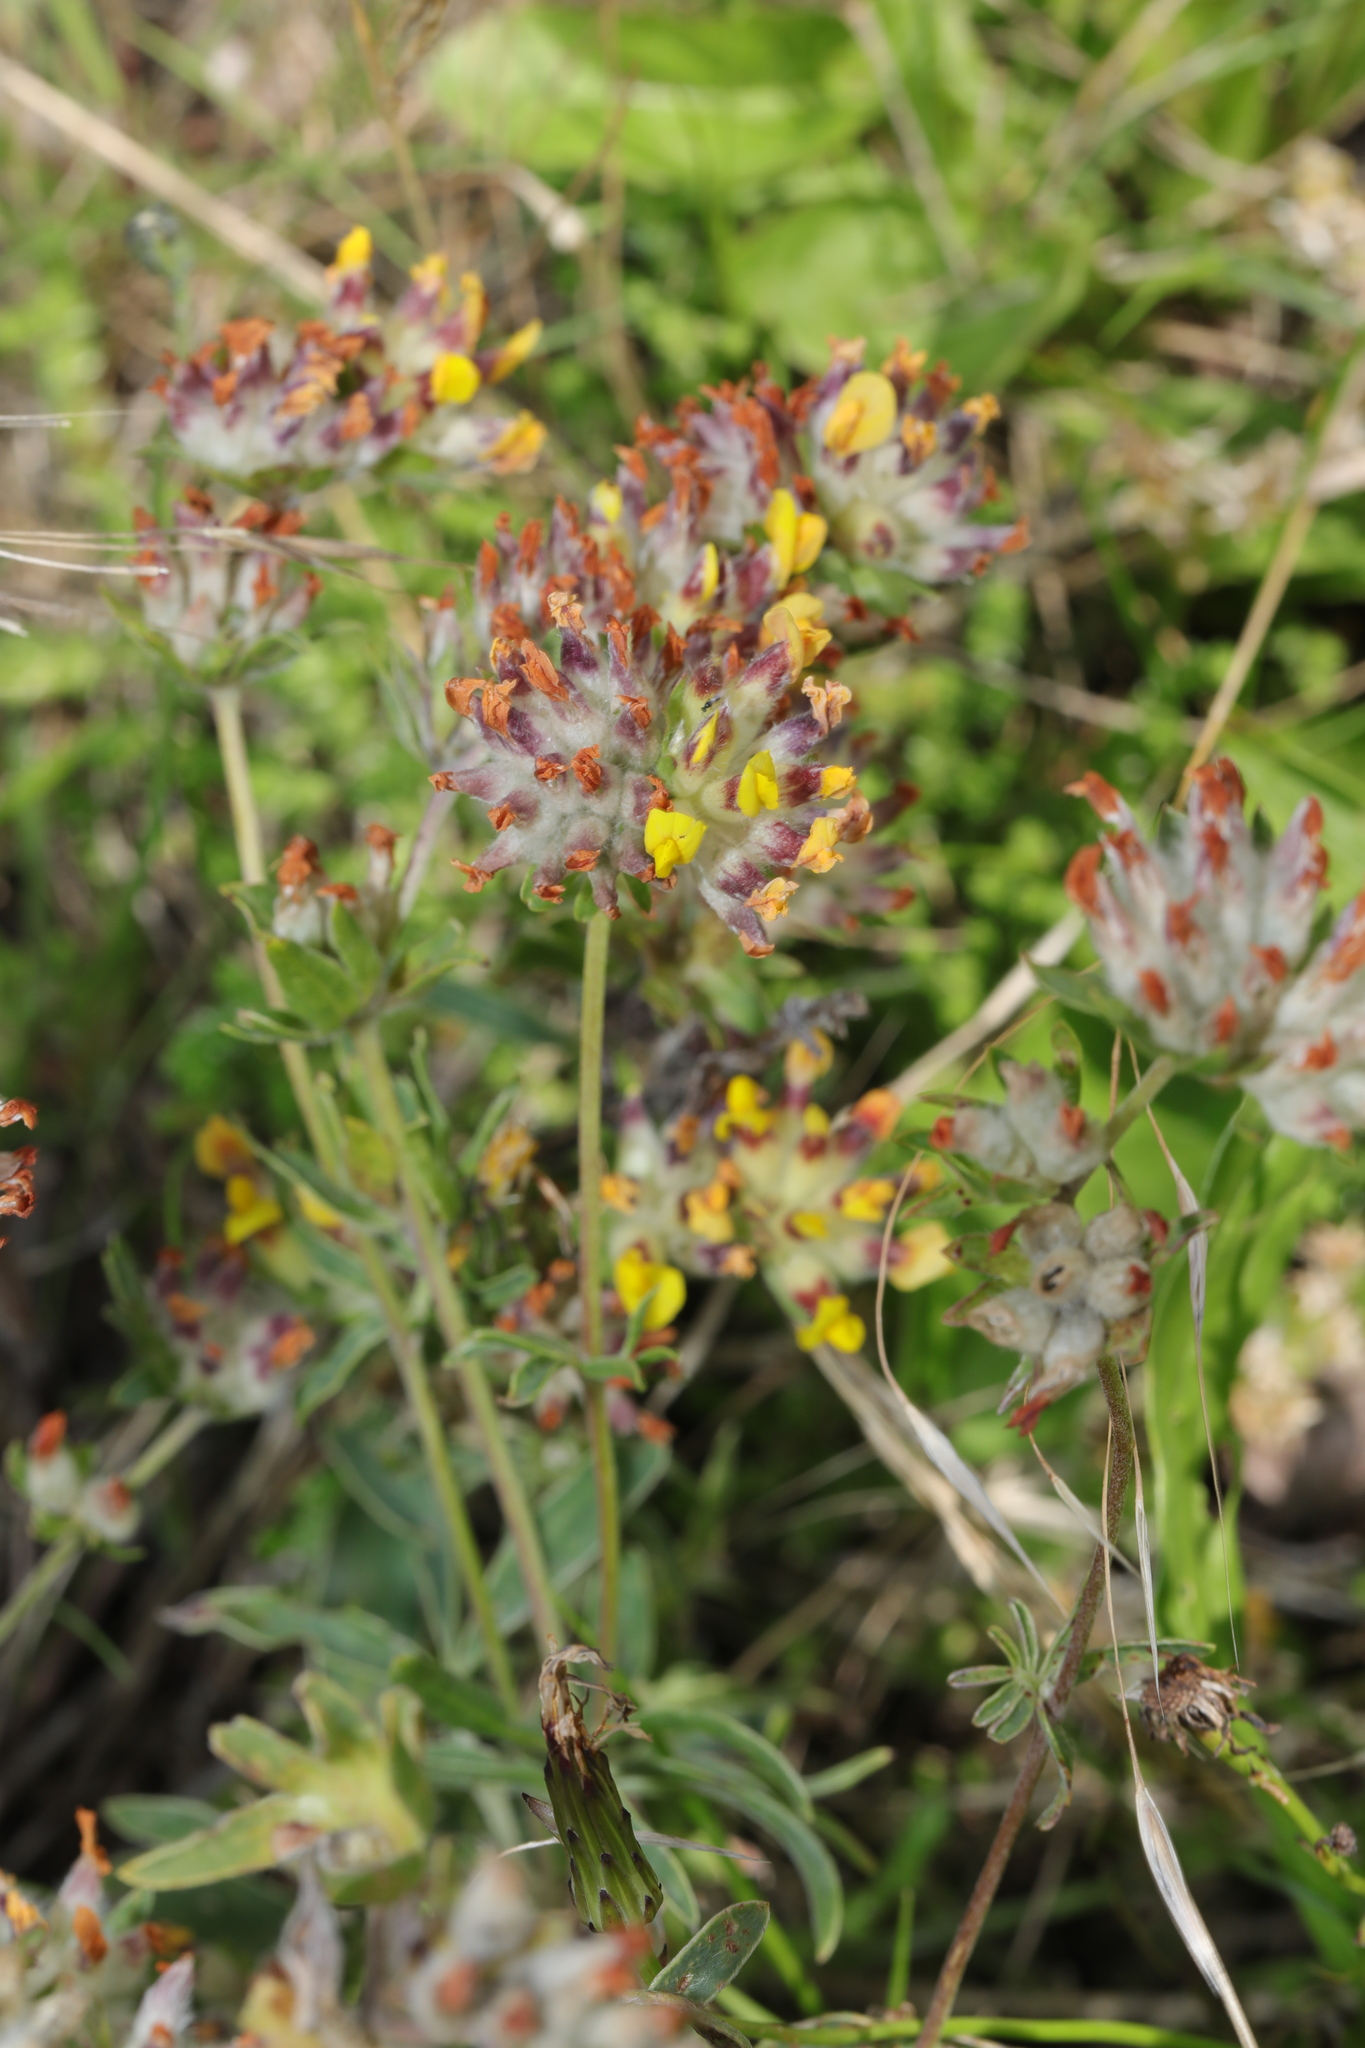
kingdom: Plantae
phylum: Tracheophyta
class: Magnoliopsida
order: Fabales
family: Fabaceae
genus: Anthyllis
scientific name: Anthyllis vulneraria
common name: Kidney vetch
